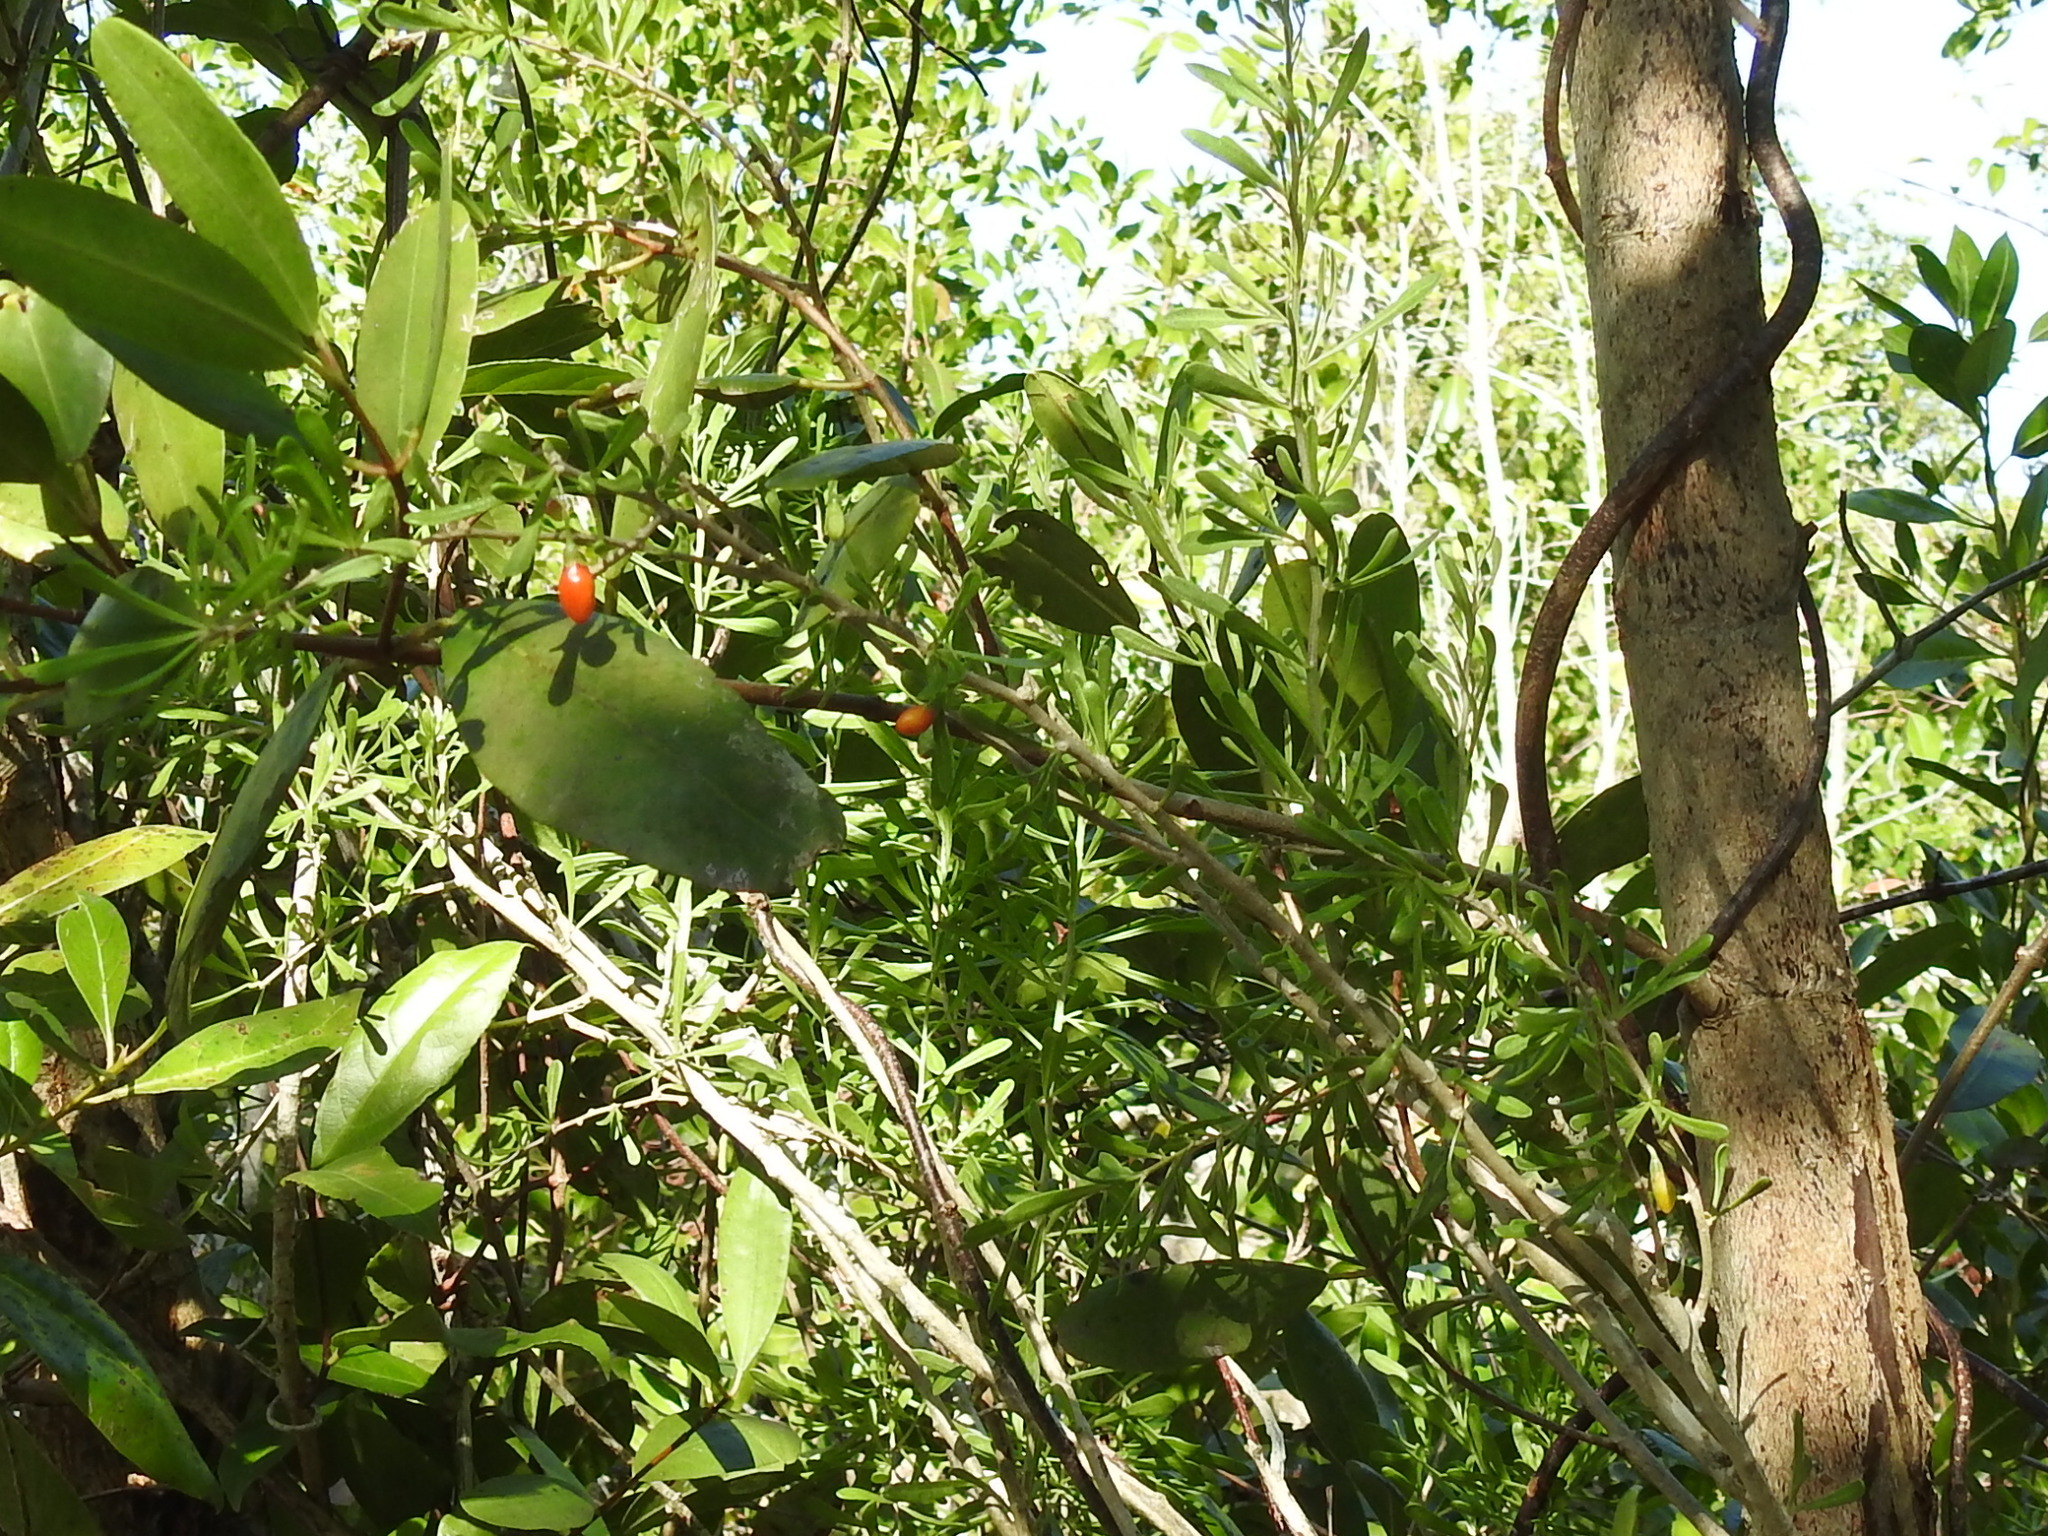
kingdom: Plantae
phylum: Tracheophyta
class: Magnoliopsida
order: Solanales
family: Solanaceae
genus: Lycium
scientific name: Lycium carolinianum
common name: Christmasberry
